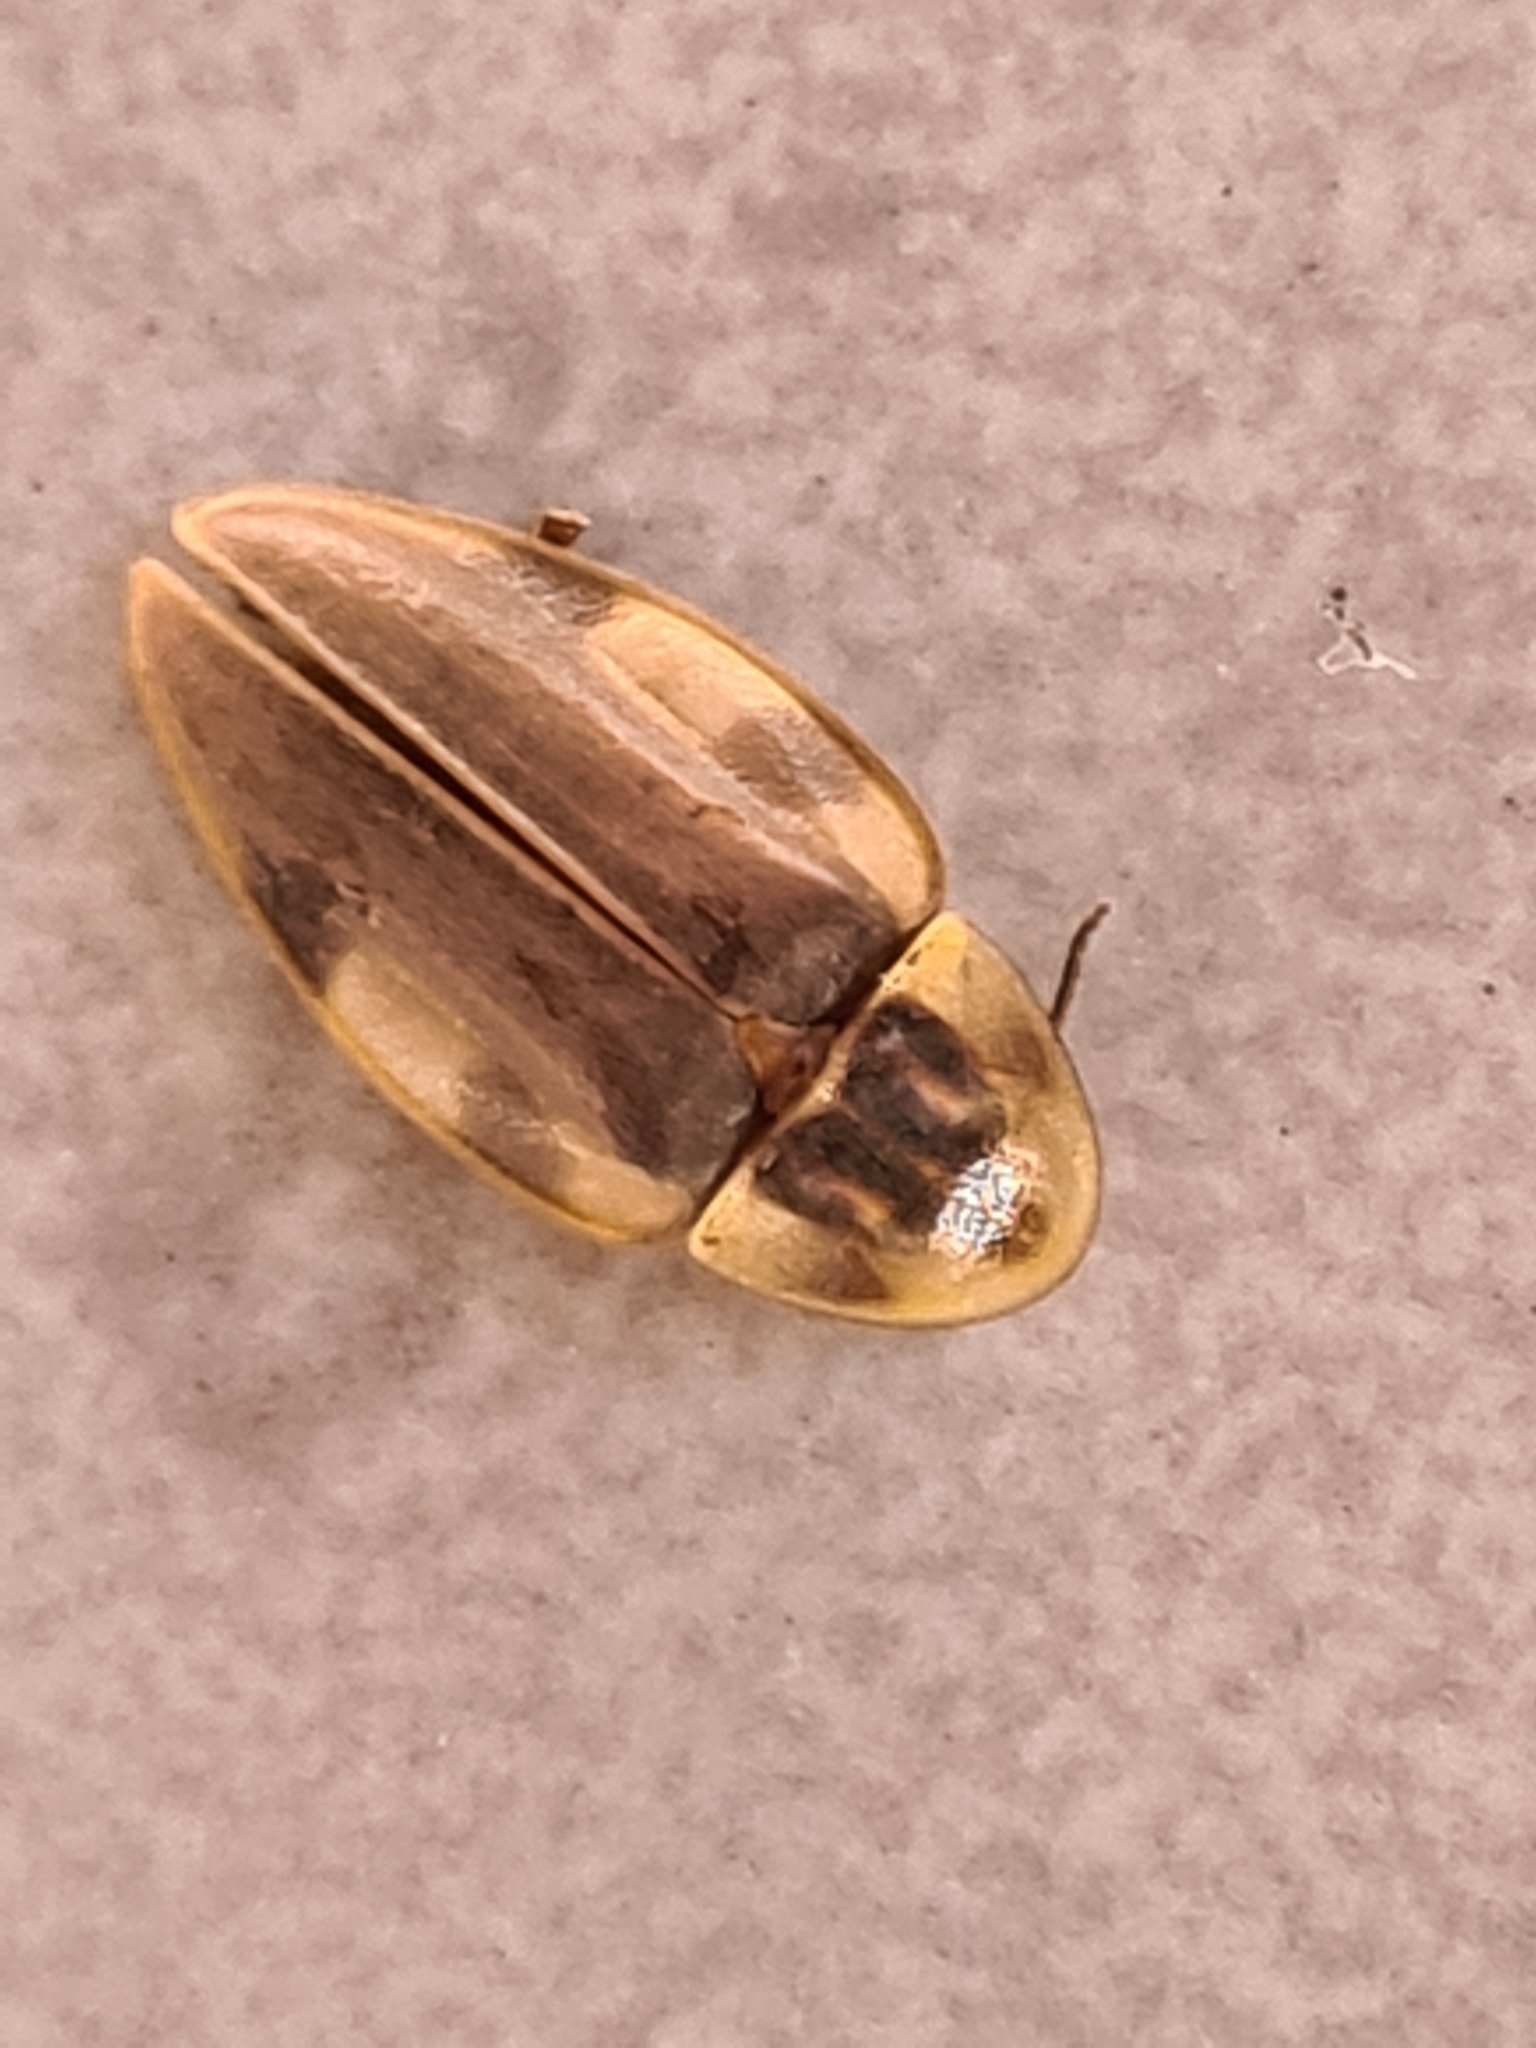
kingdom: Animalia
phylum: Arthropoda
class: Insecta
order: Coleoptera
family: Lampyridae
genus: Aspisoma
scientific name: Aspisoma
